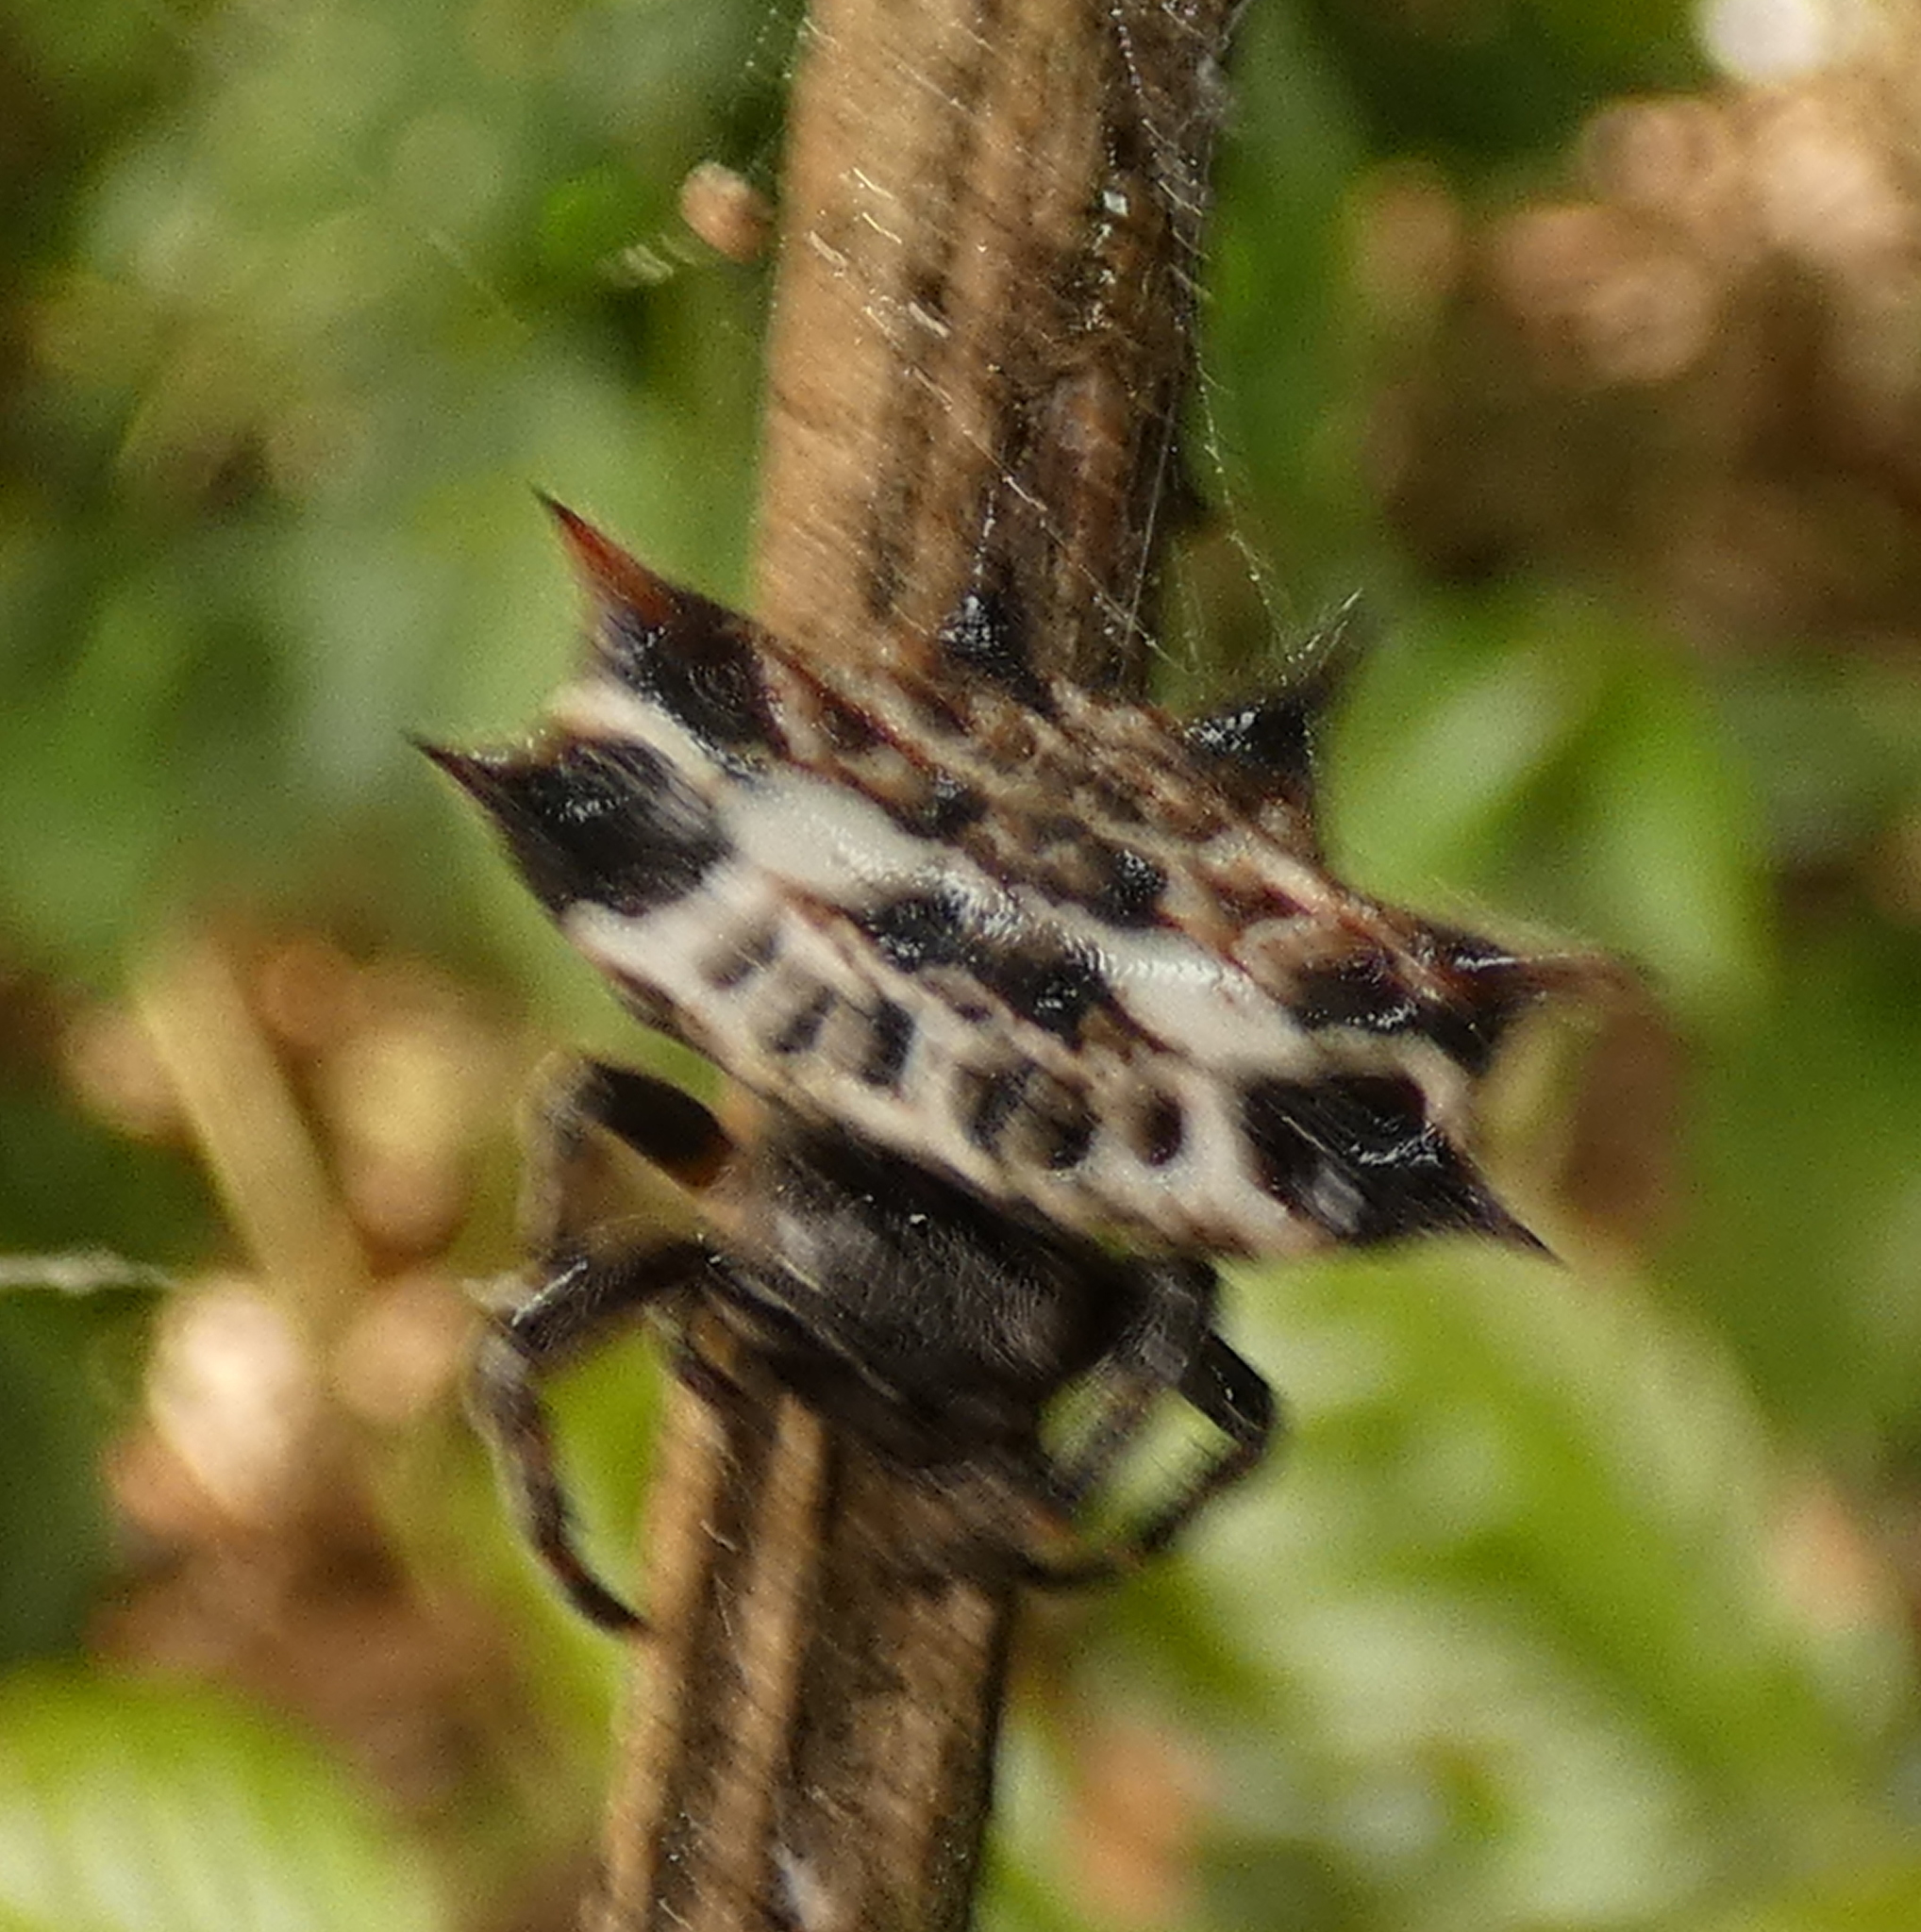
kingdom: Animalia
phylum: Arthropoda
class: Arachnida
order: Araneae
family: Araneidae
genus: Gasteracantha
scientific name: Gasteracantha cancriformis
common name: Orb weavers
